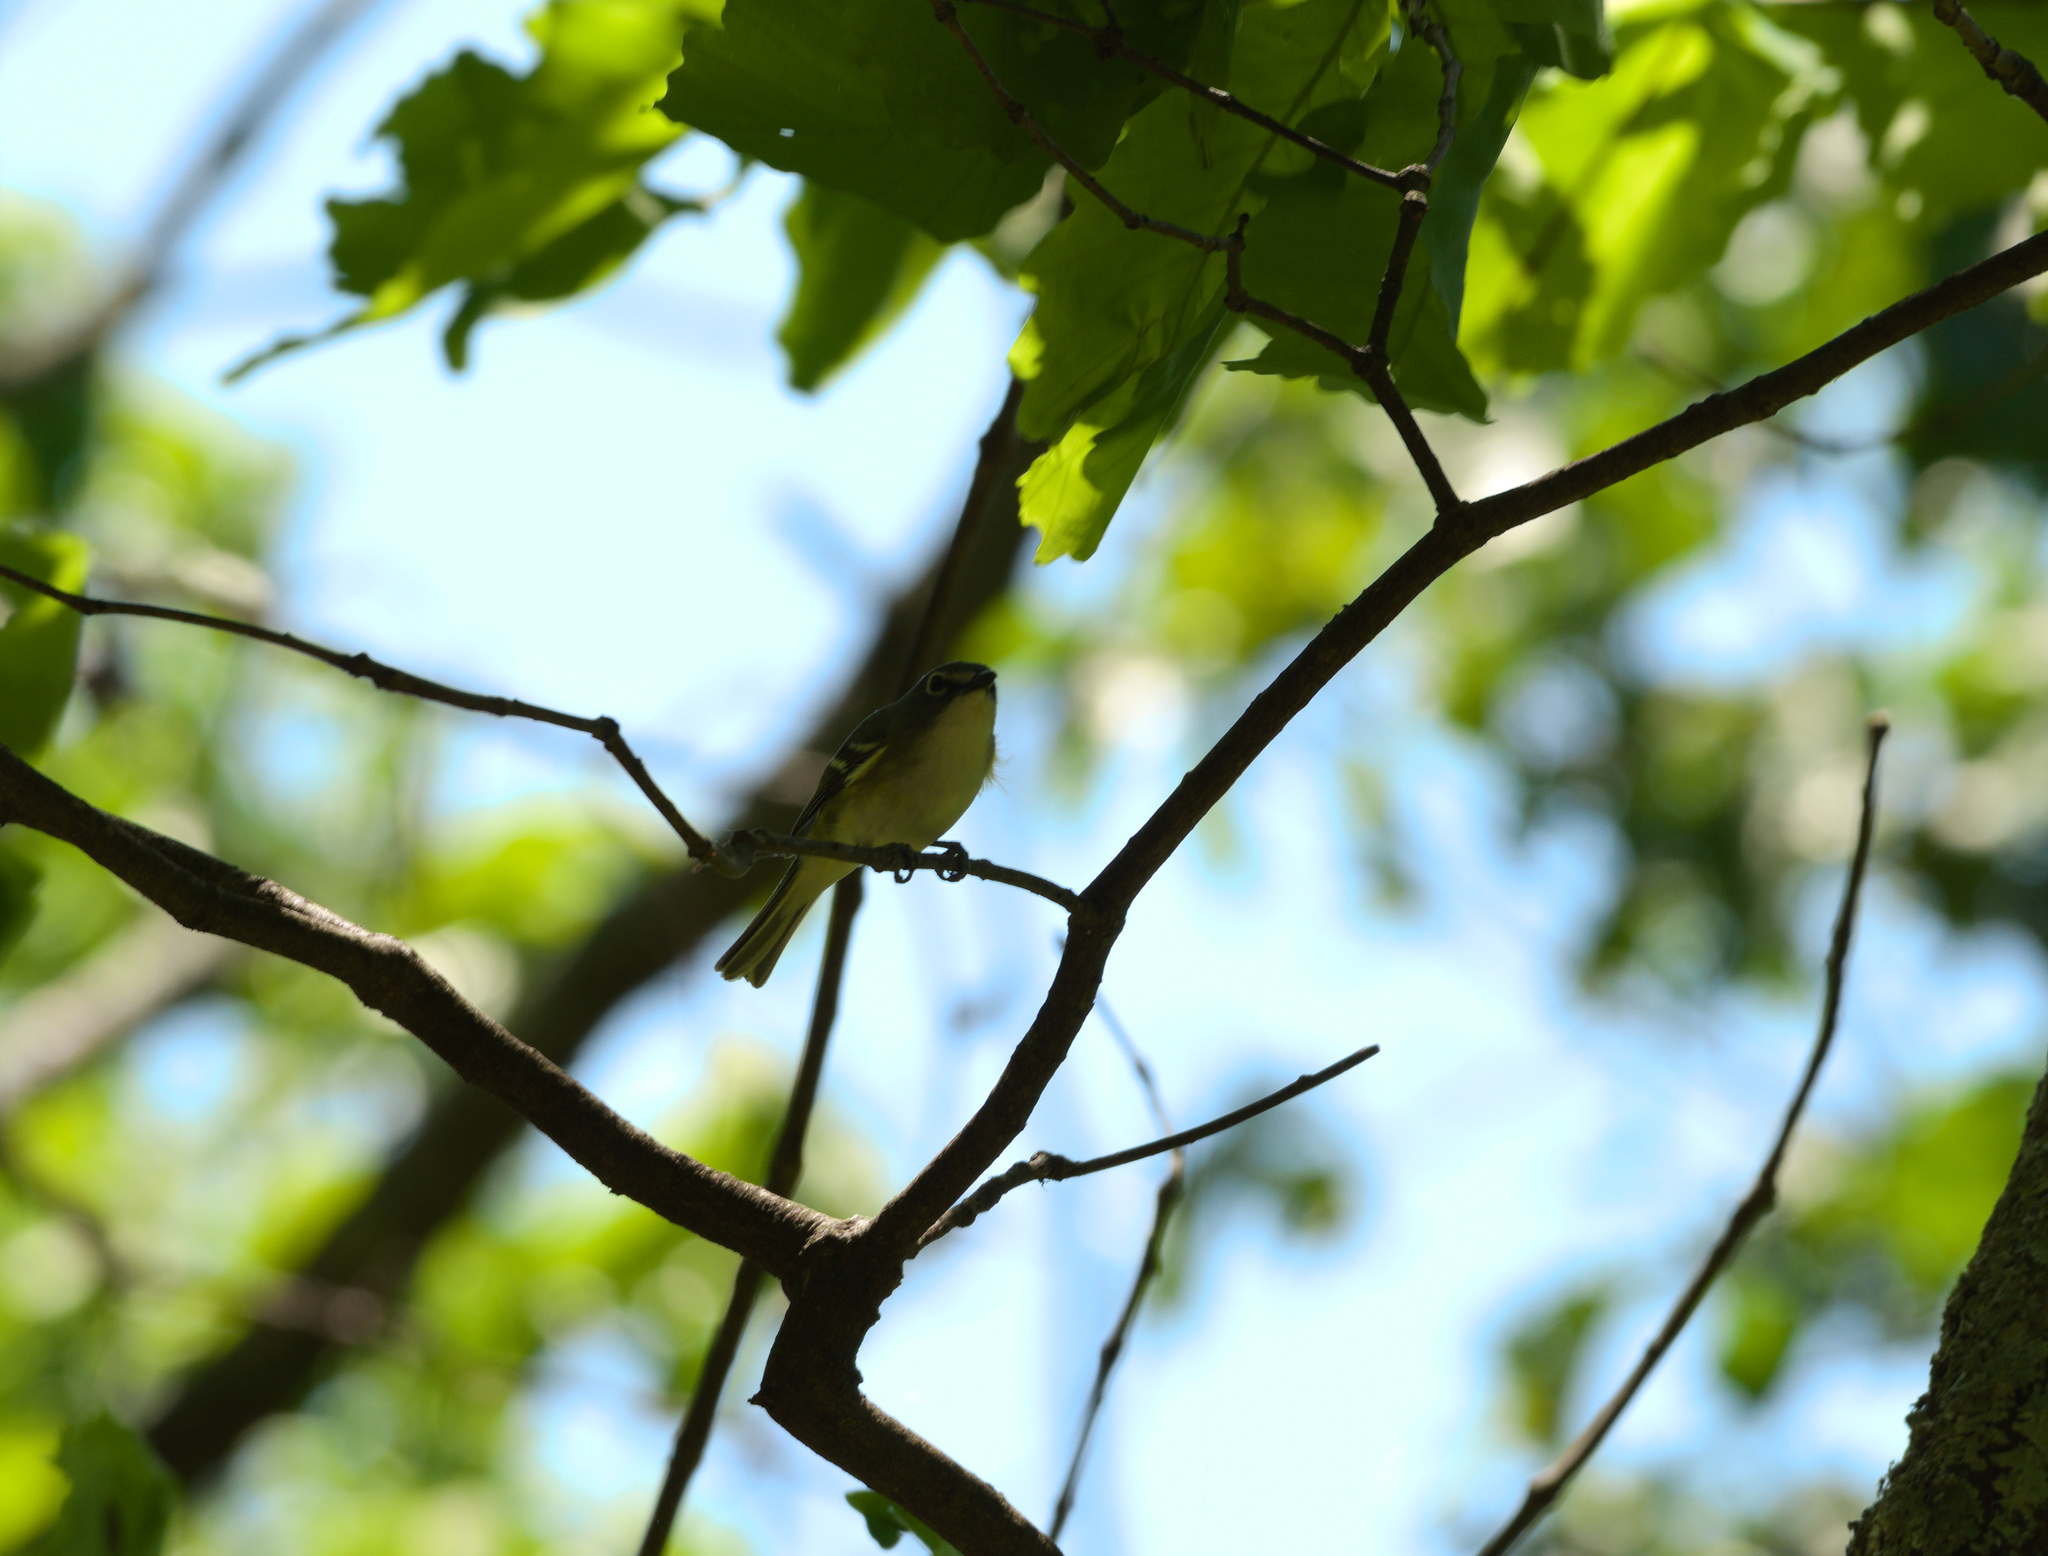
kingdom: Animalia
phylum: Chordata
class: Aves
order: Passeriformes
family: Vireonidae
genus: Vireo
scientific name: Vireo solitarius
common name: Blue-headed vireo
